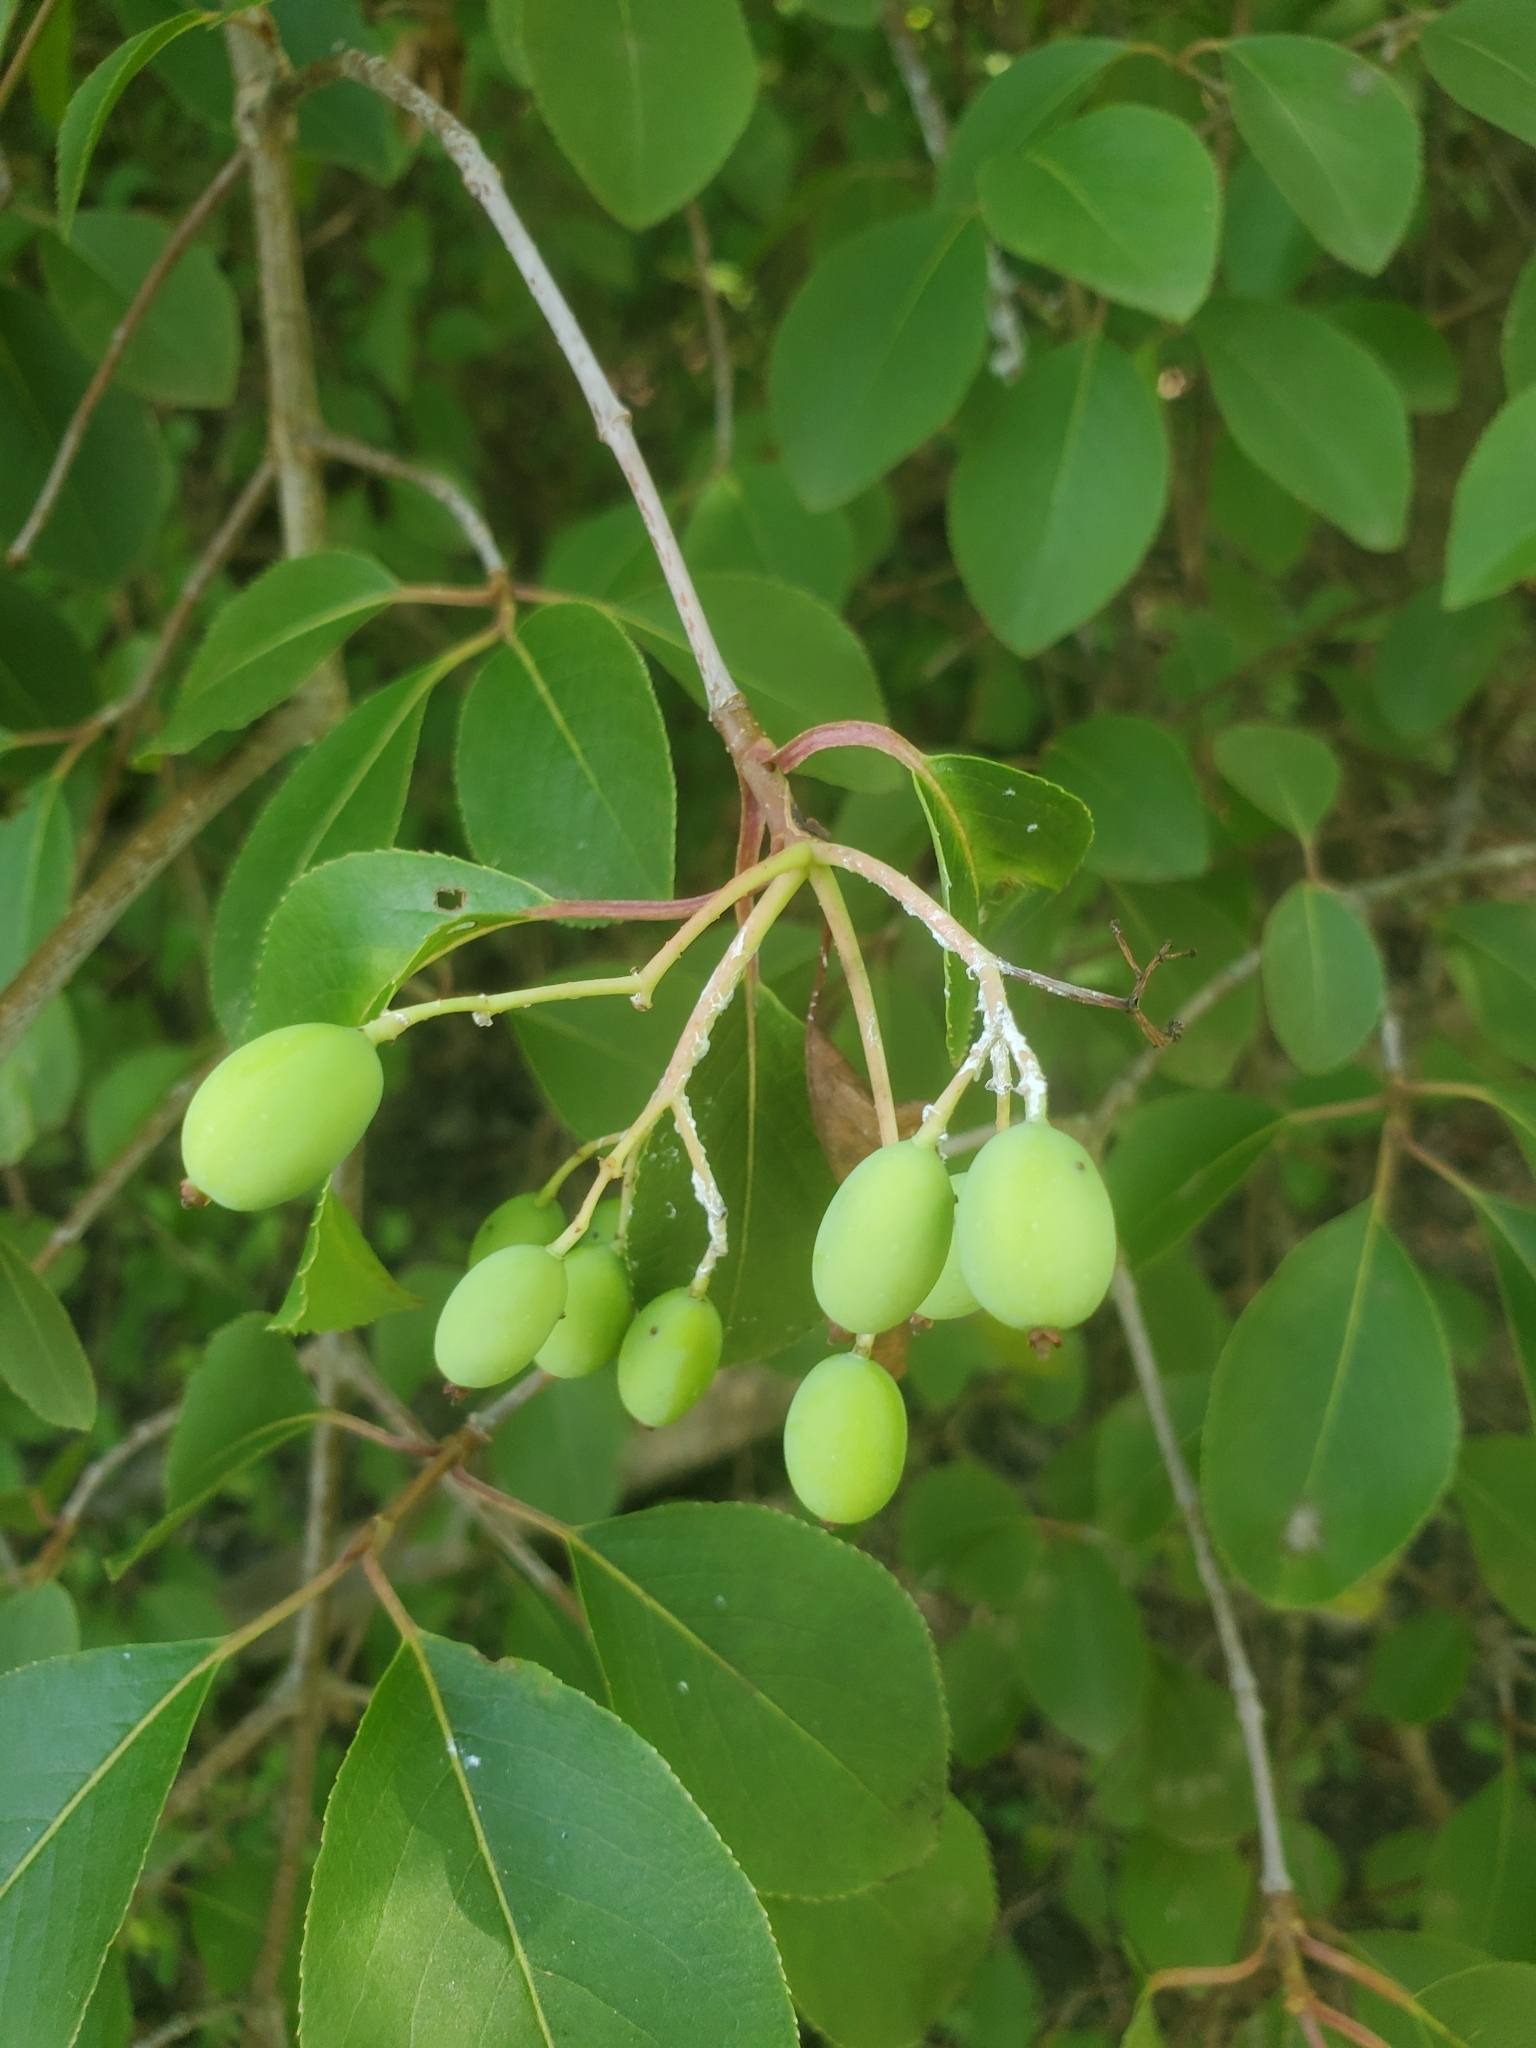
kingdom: Plantae
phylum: Tracheophyta
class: Magnoliopsida
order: Dipsacales
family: Viburnaceae
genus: Viburnum
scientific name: Viburnum prunifolium
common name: Black haw
